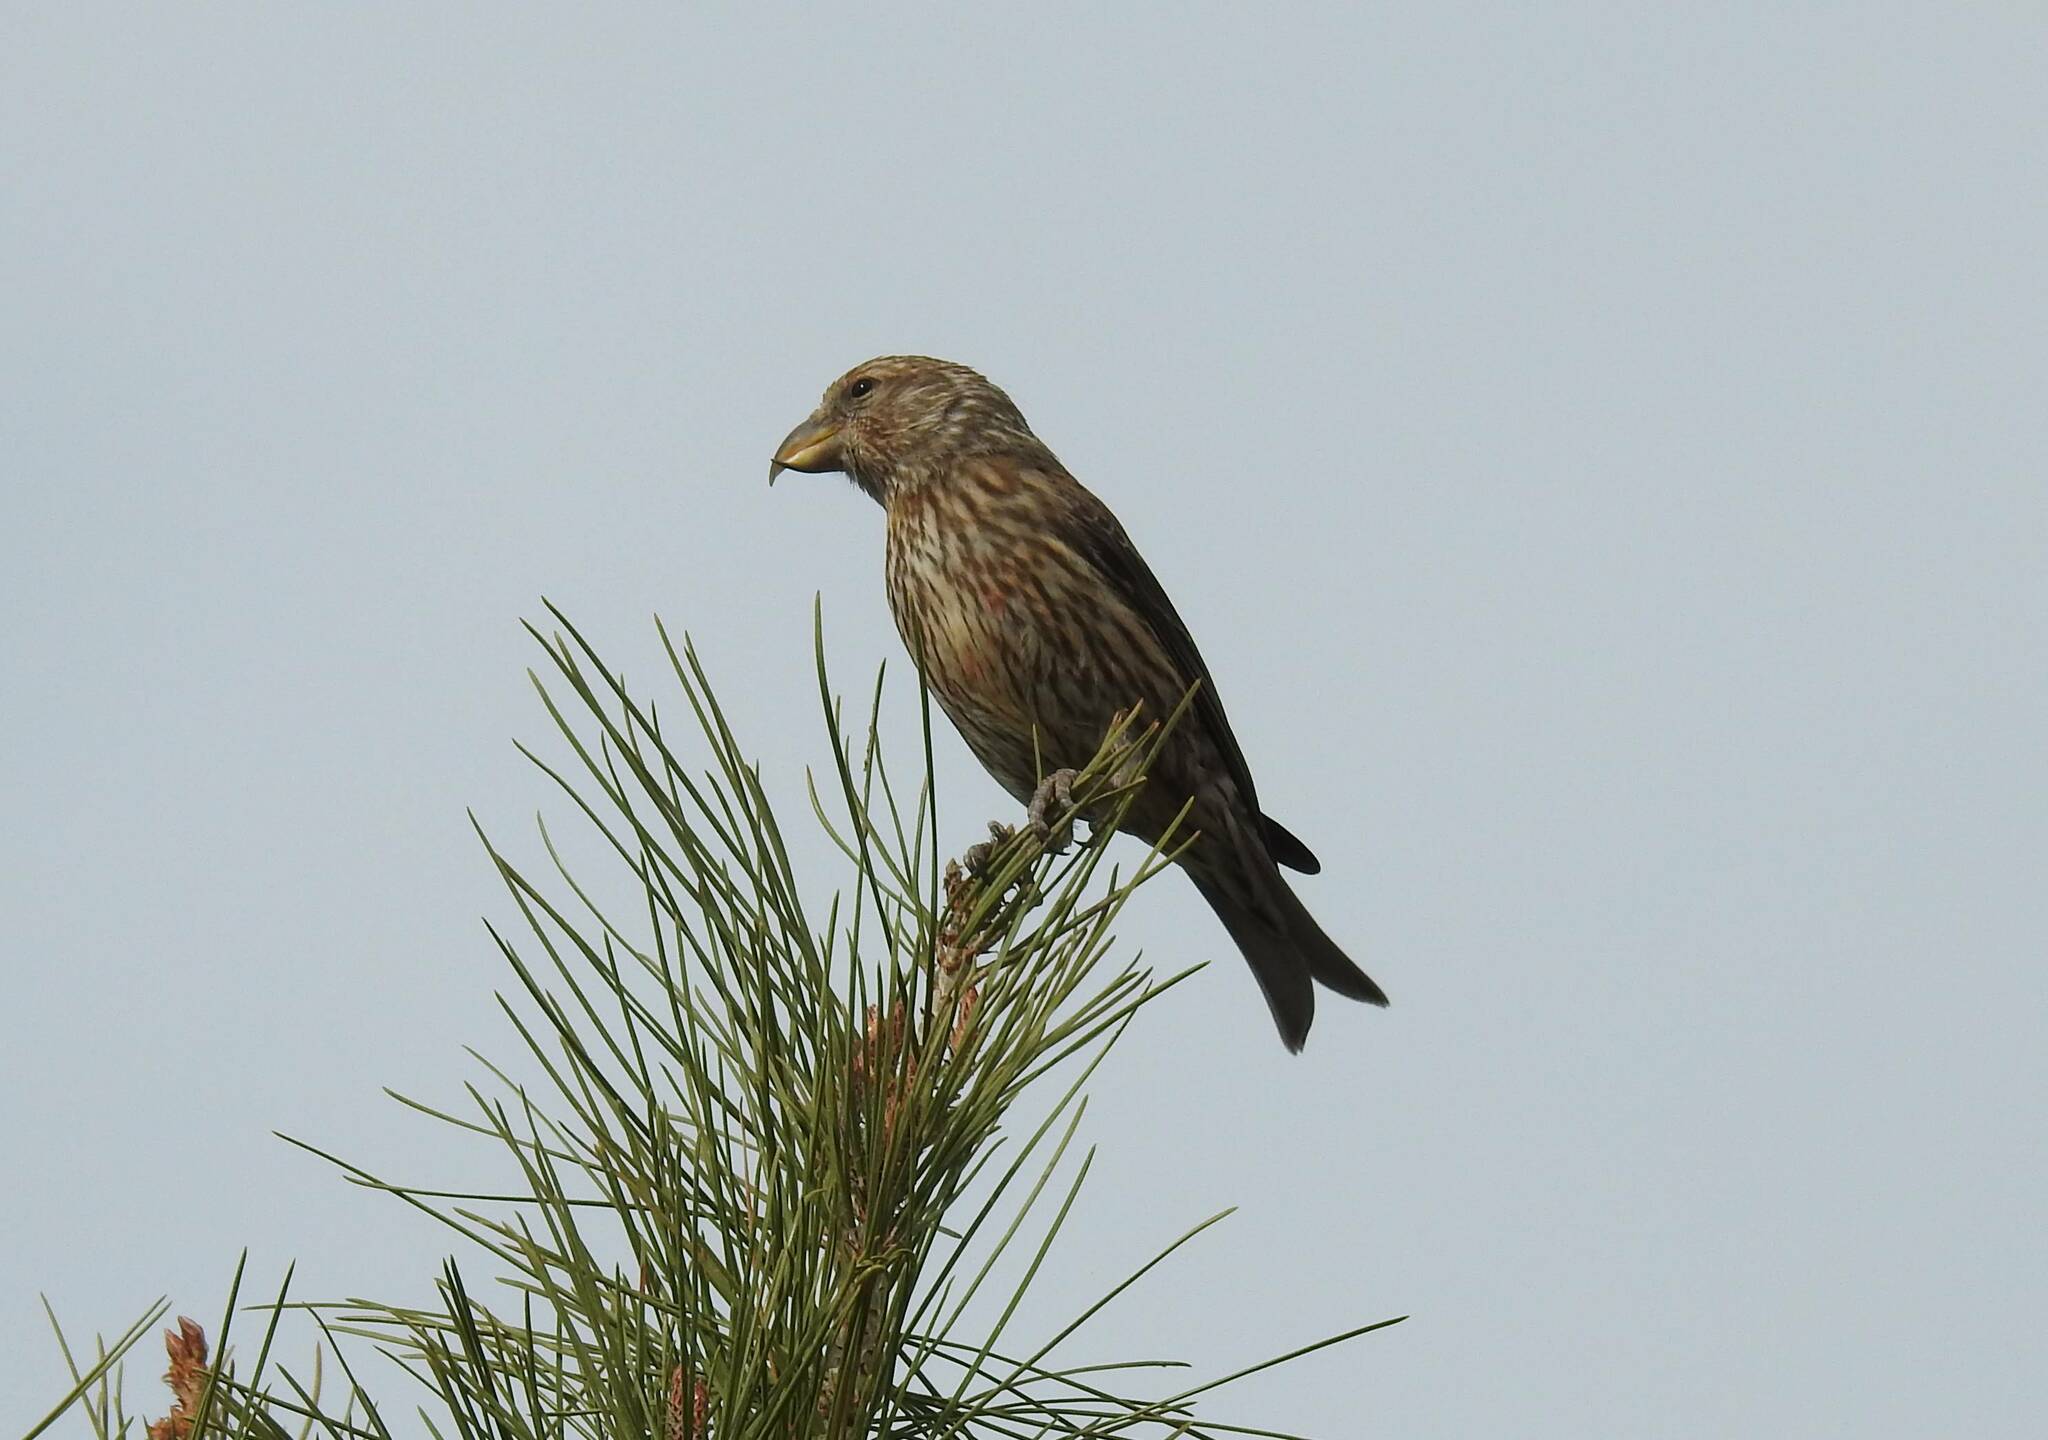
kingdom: Animalia
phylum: Chordata
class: Aves
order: Passeriformes
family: Fringillidae
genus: Loxia
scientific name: Loxia curvirostra
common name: Red crossbill
